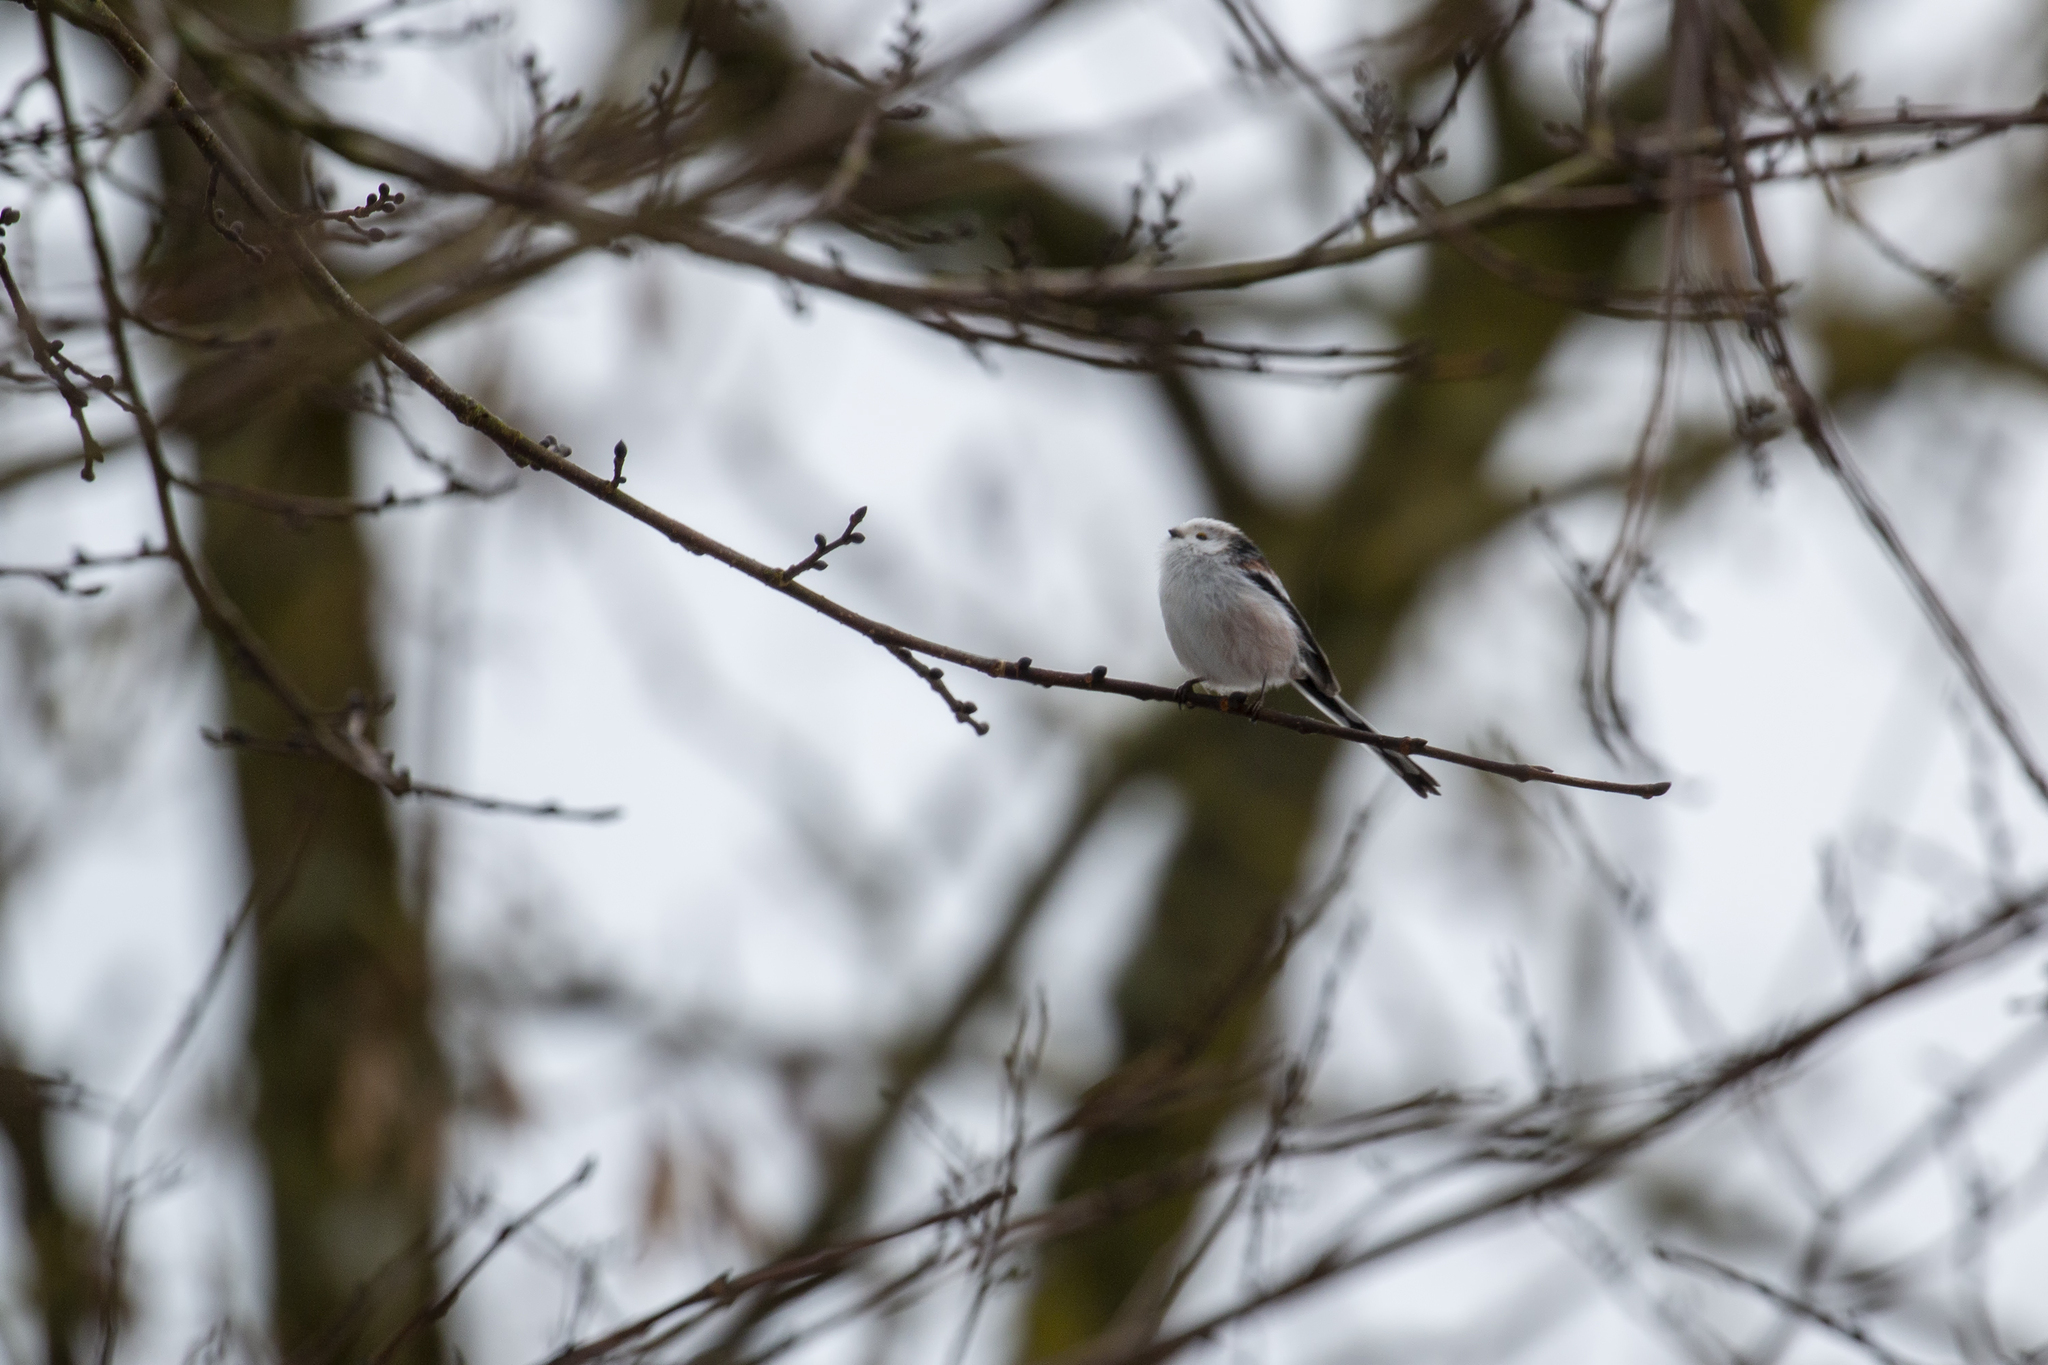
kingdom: Animalia
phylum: Chordata
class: Aves
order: Passeriformes
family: Aegithalidae
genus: Aegithalos
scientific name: Aegithalos caudatus
